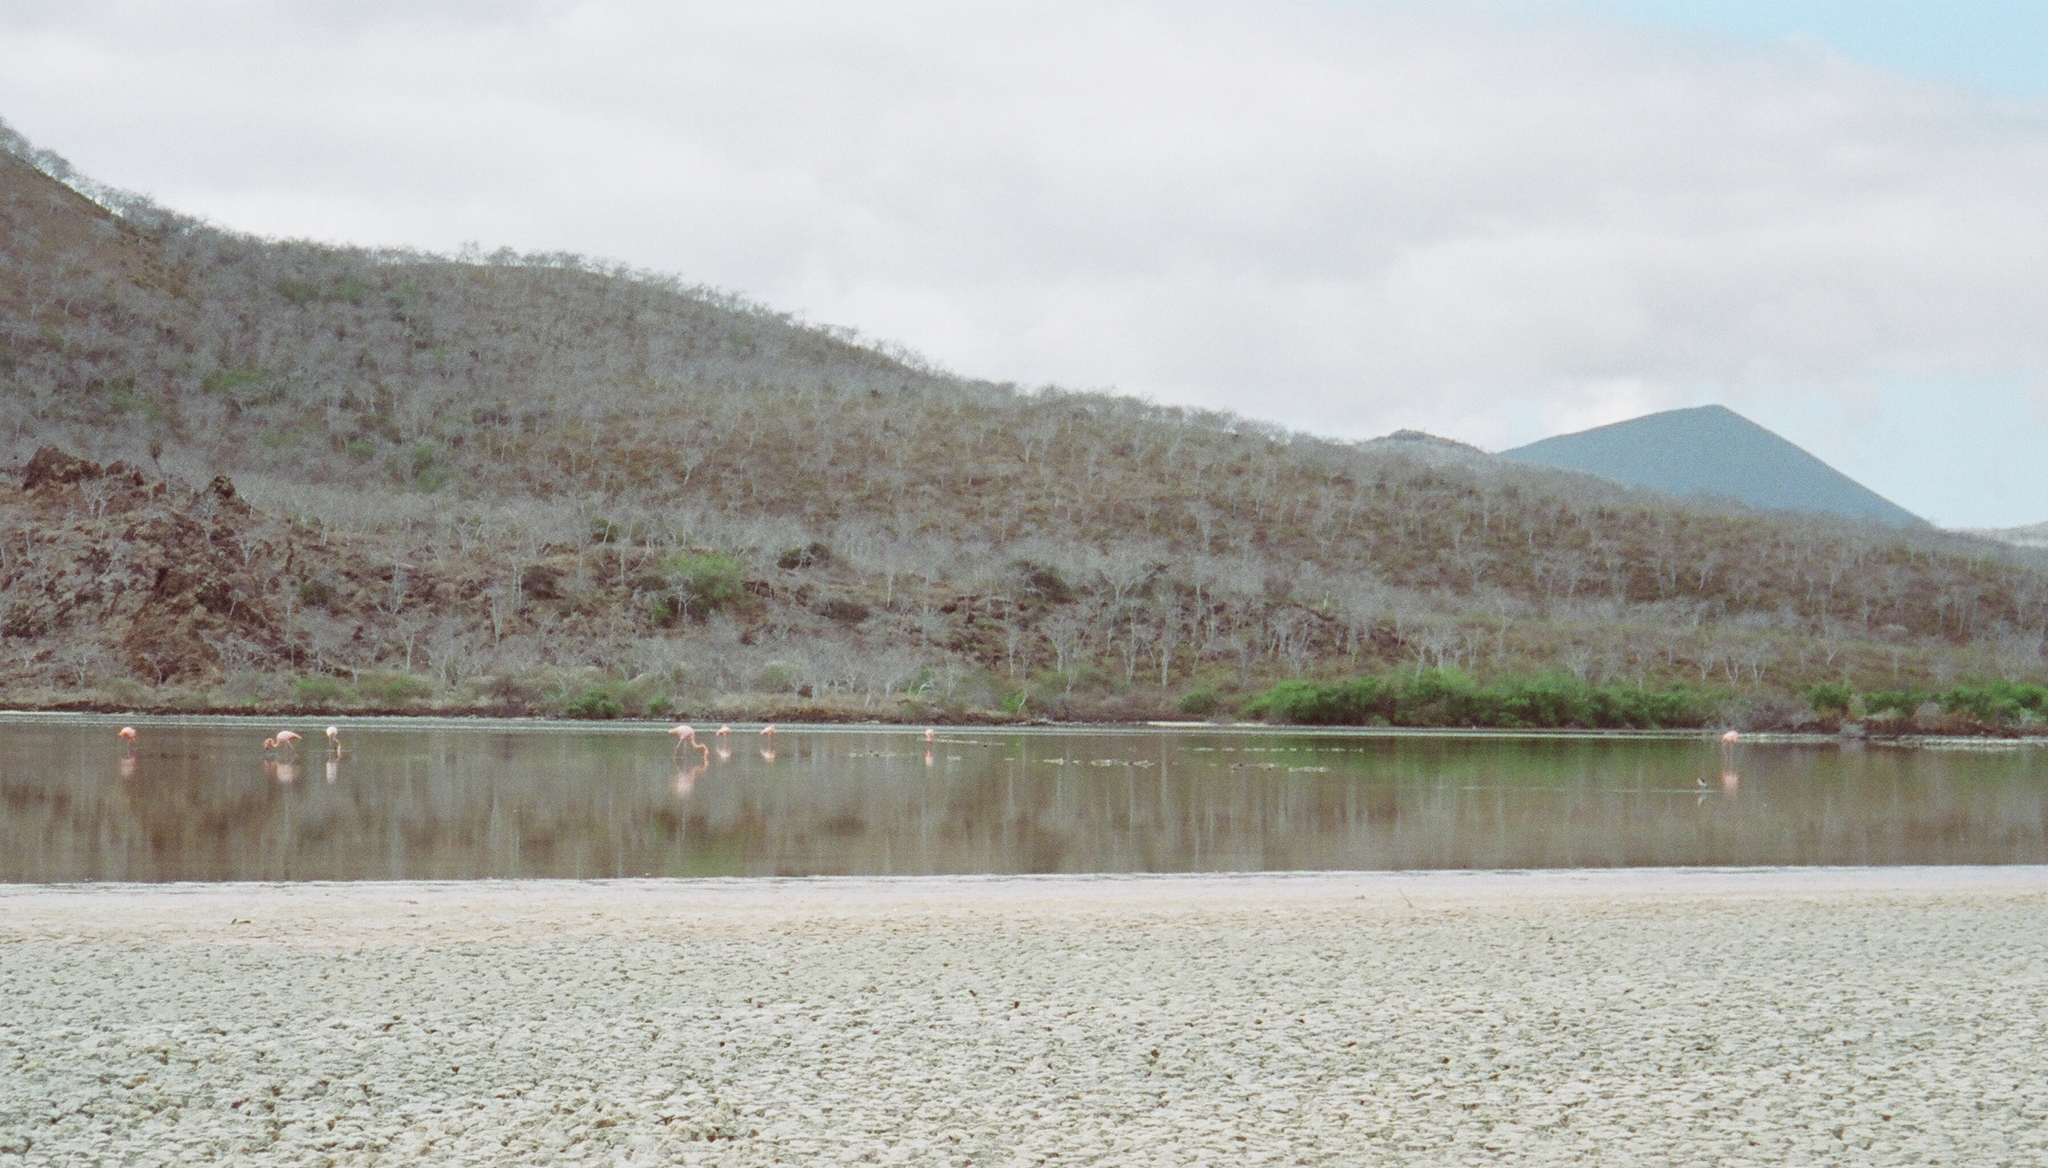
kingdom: Animalia
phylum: Chordata
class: Aves
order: Phoenicopteriformes
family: Phoenicopteridae
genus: Phoenicopterus
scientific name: Phoenicopterus ruber
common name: American flamingo
